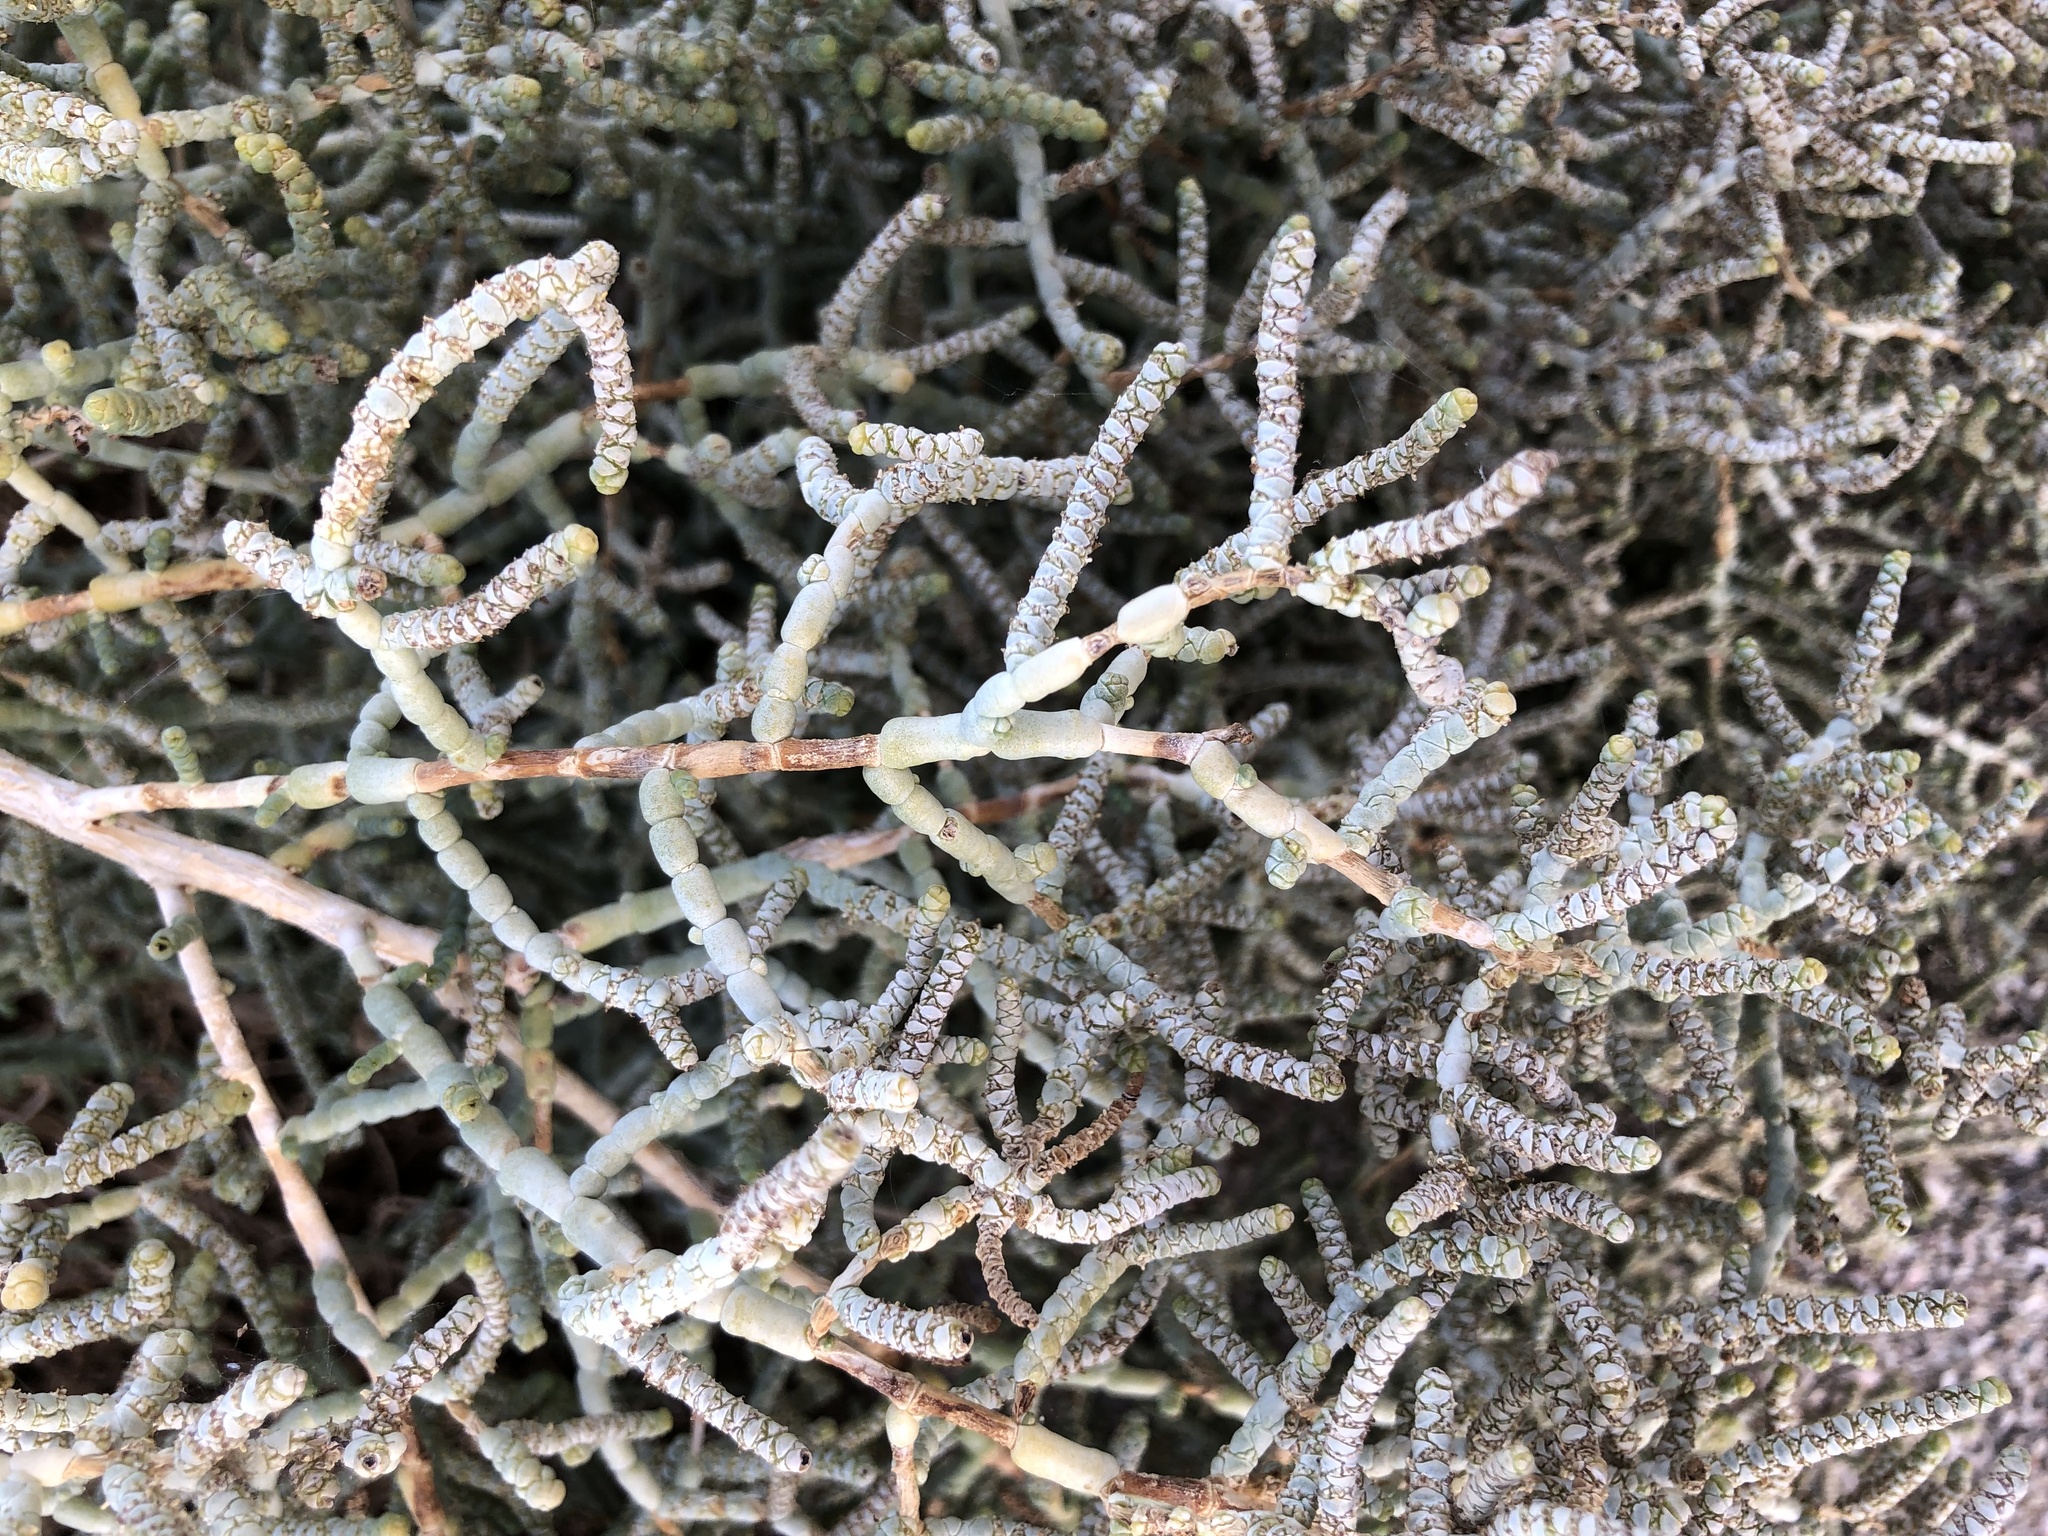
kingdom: Plantae
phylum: Tracheophyta
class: Magnoliopsida
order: Caryophyllales
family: Amaranthaceae
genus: Allenrolfea
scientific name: Allenrolfea occidentalis
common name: Iodine-bush
